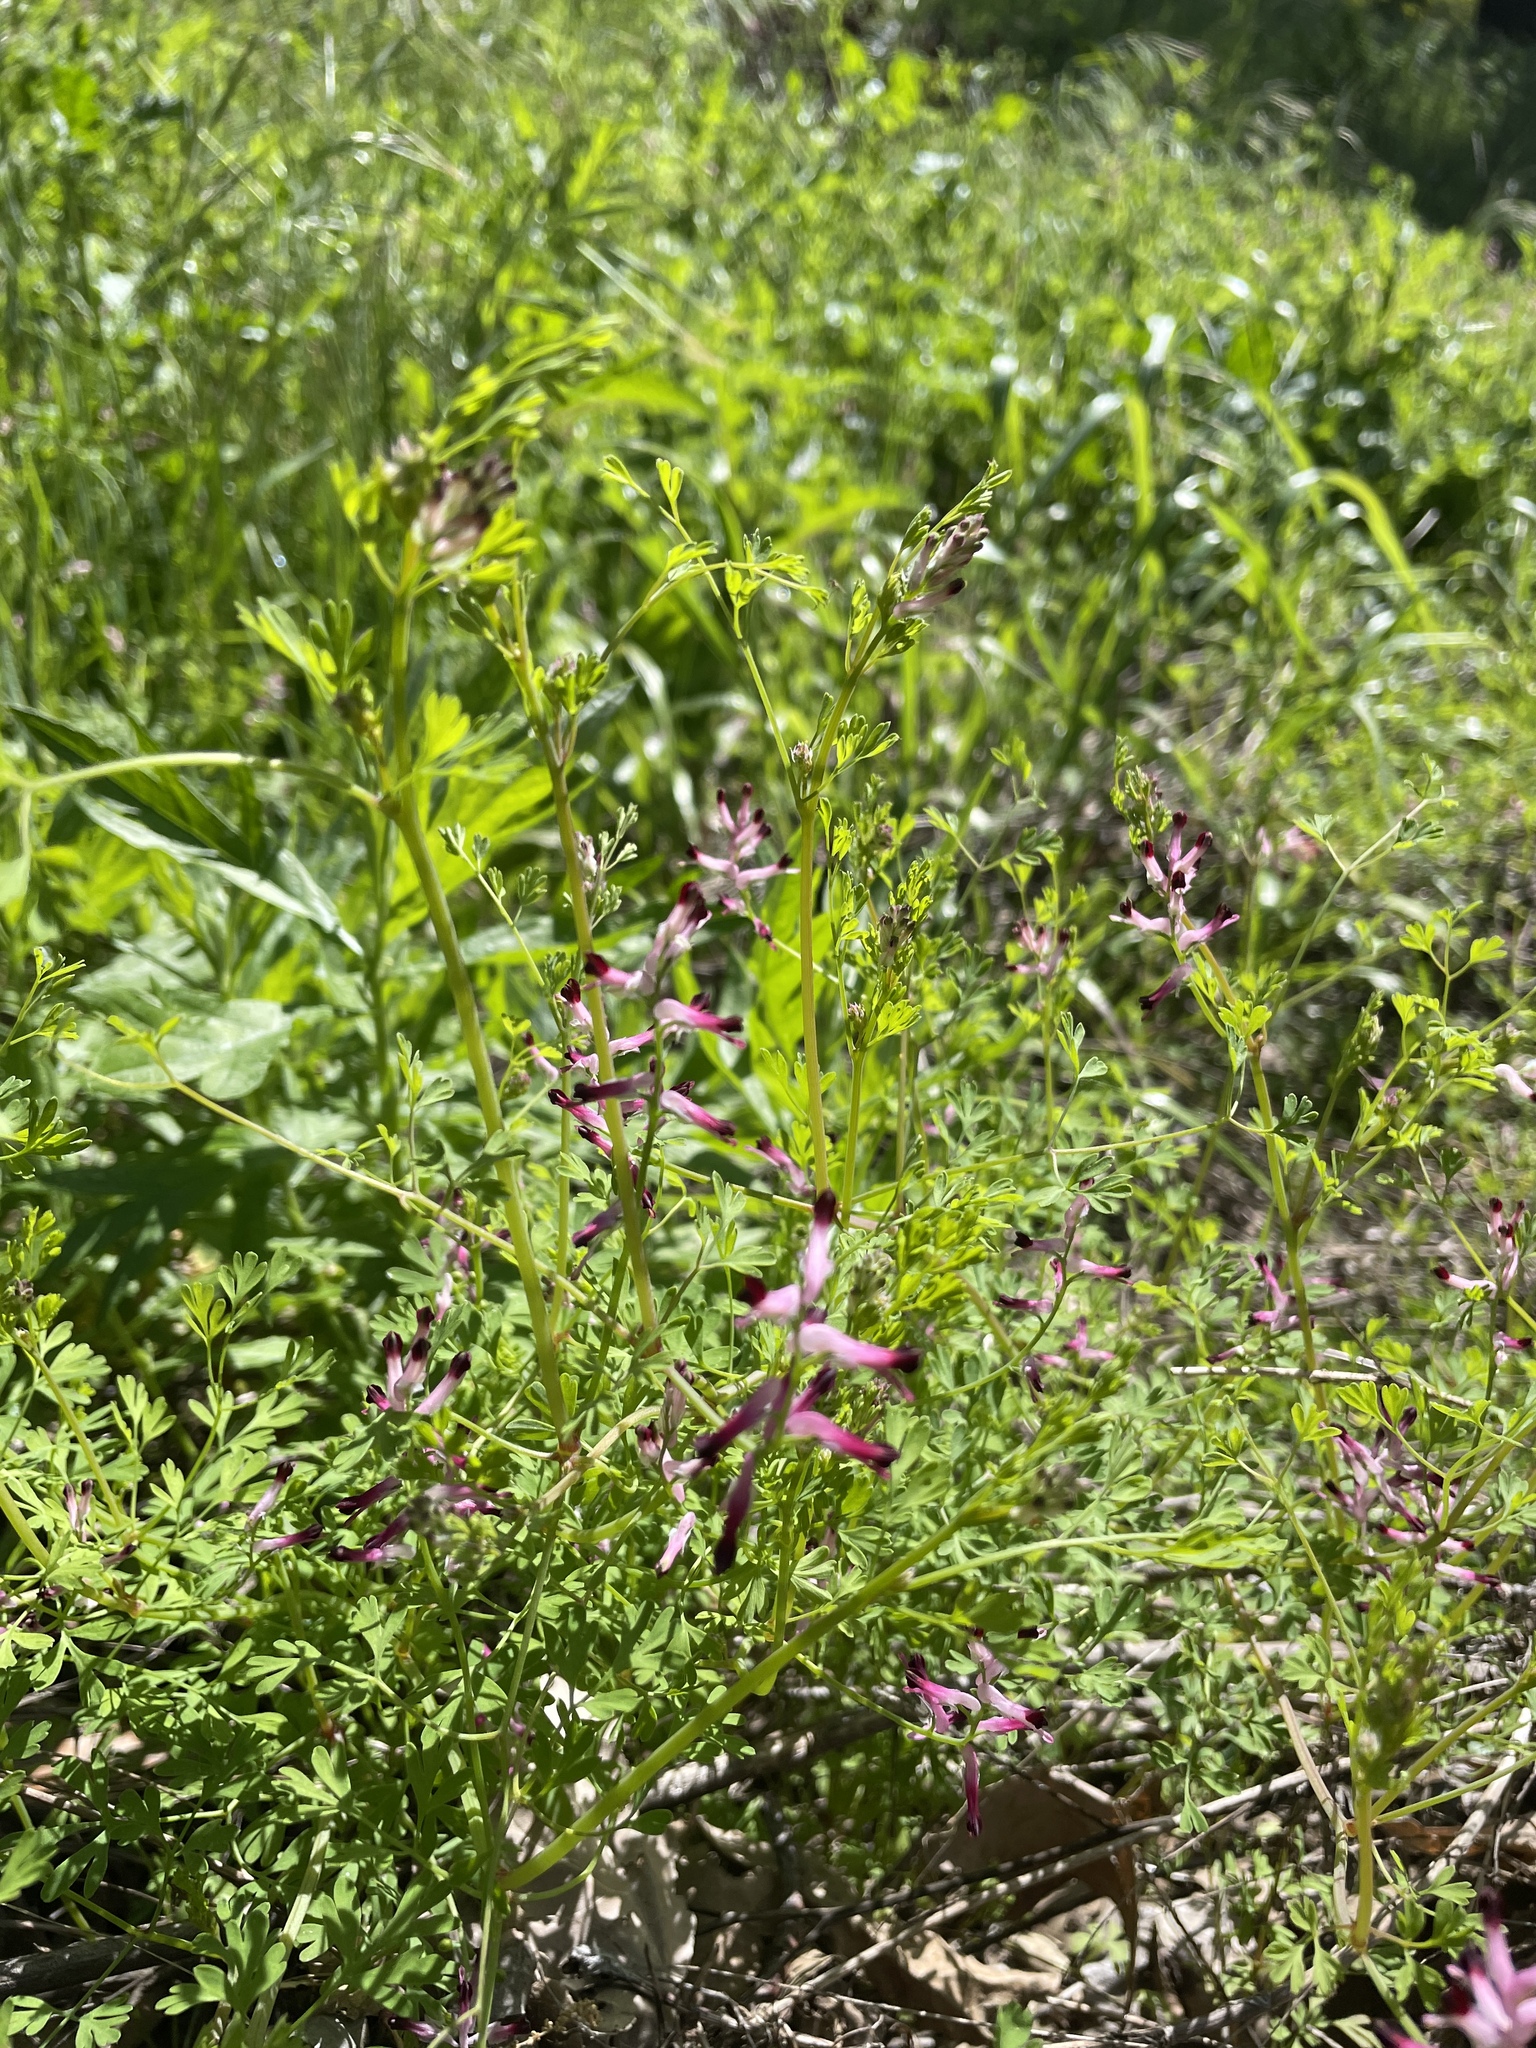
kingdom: Plantae
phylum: Tracheophyta
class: Magnoliopsida
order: Ranunculales
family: Papaveraceae
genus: Fumaria
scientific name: Fumaria muralis
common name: Common ramping-fumitory
